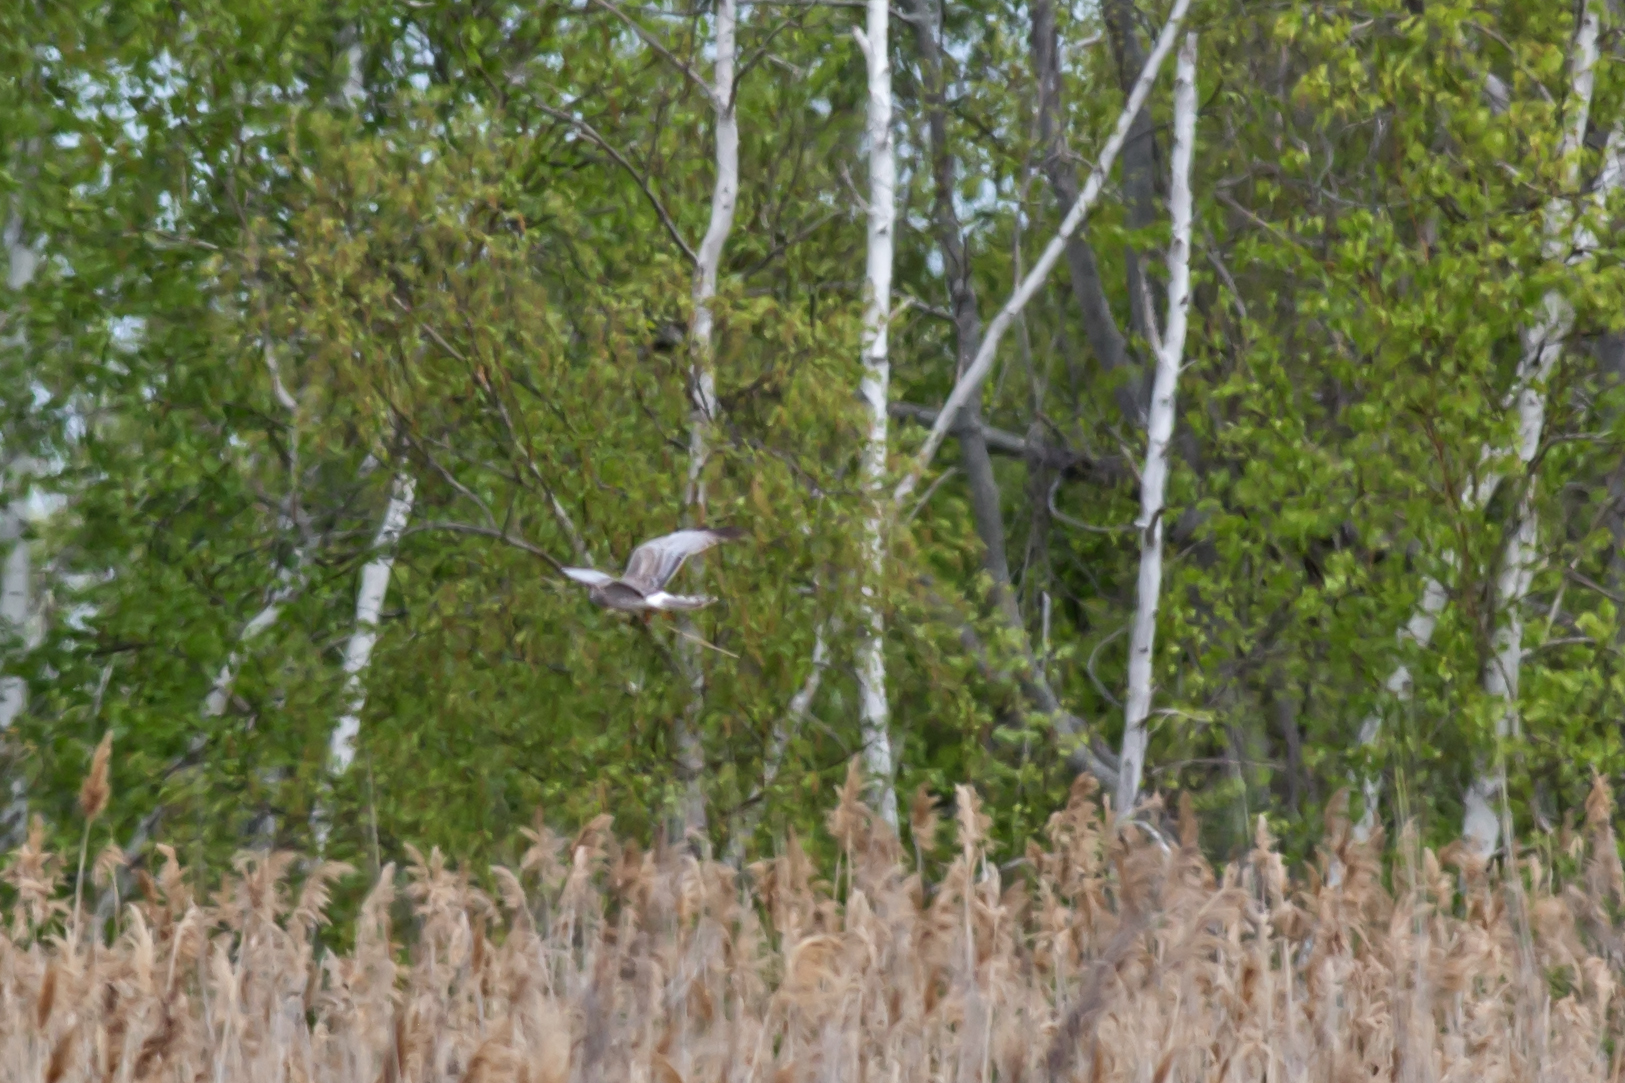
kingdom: Animalia
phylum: Chordata
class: Aves
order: Accipitriformes
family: Accipitridae
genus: Circus
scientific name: Circus cyaneus
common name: Hen harrier
